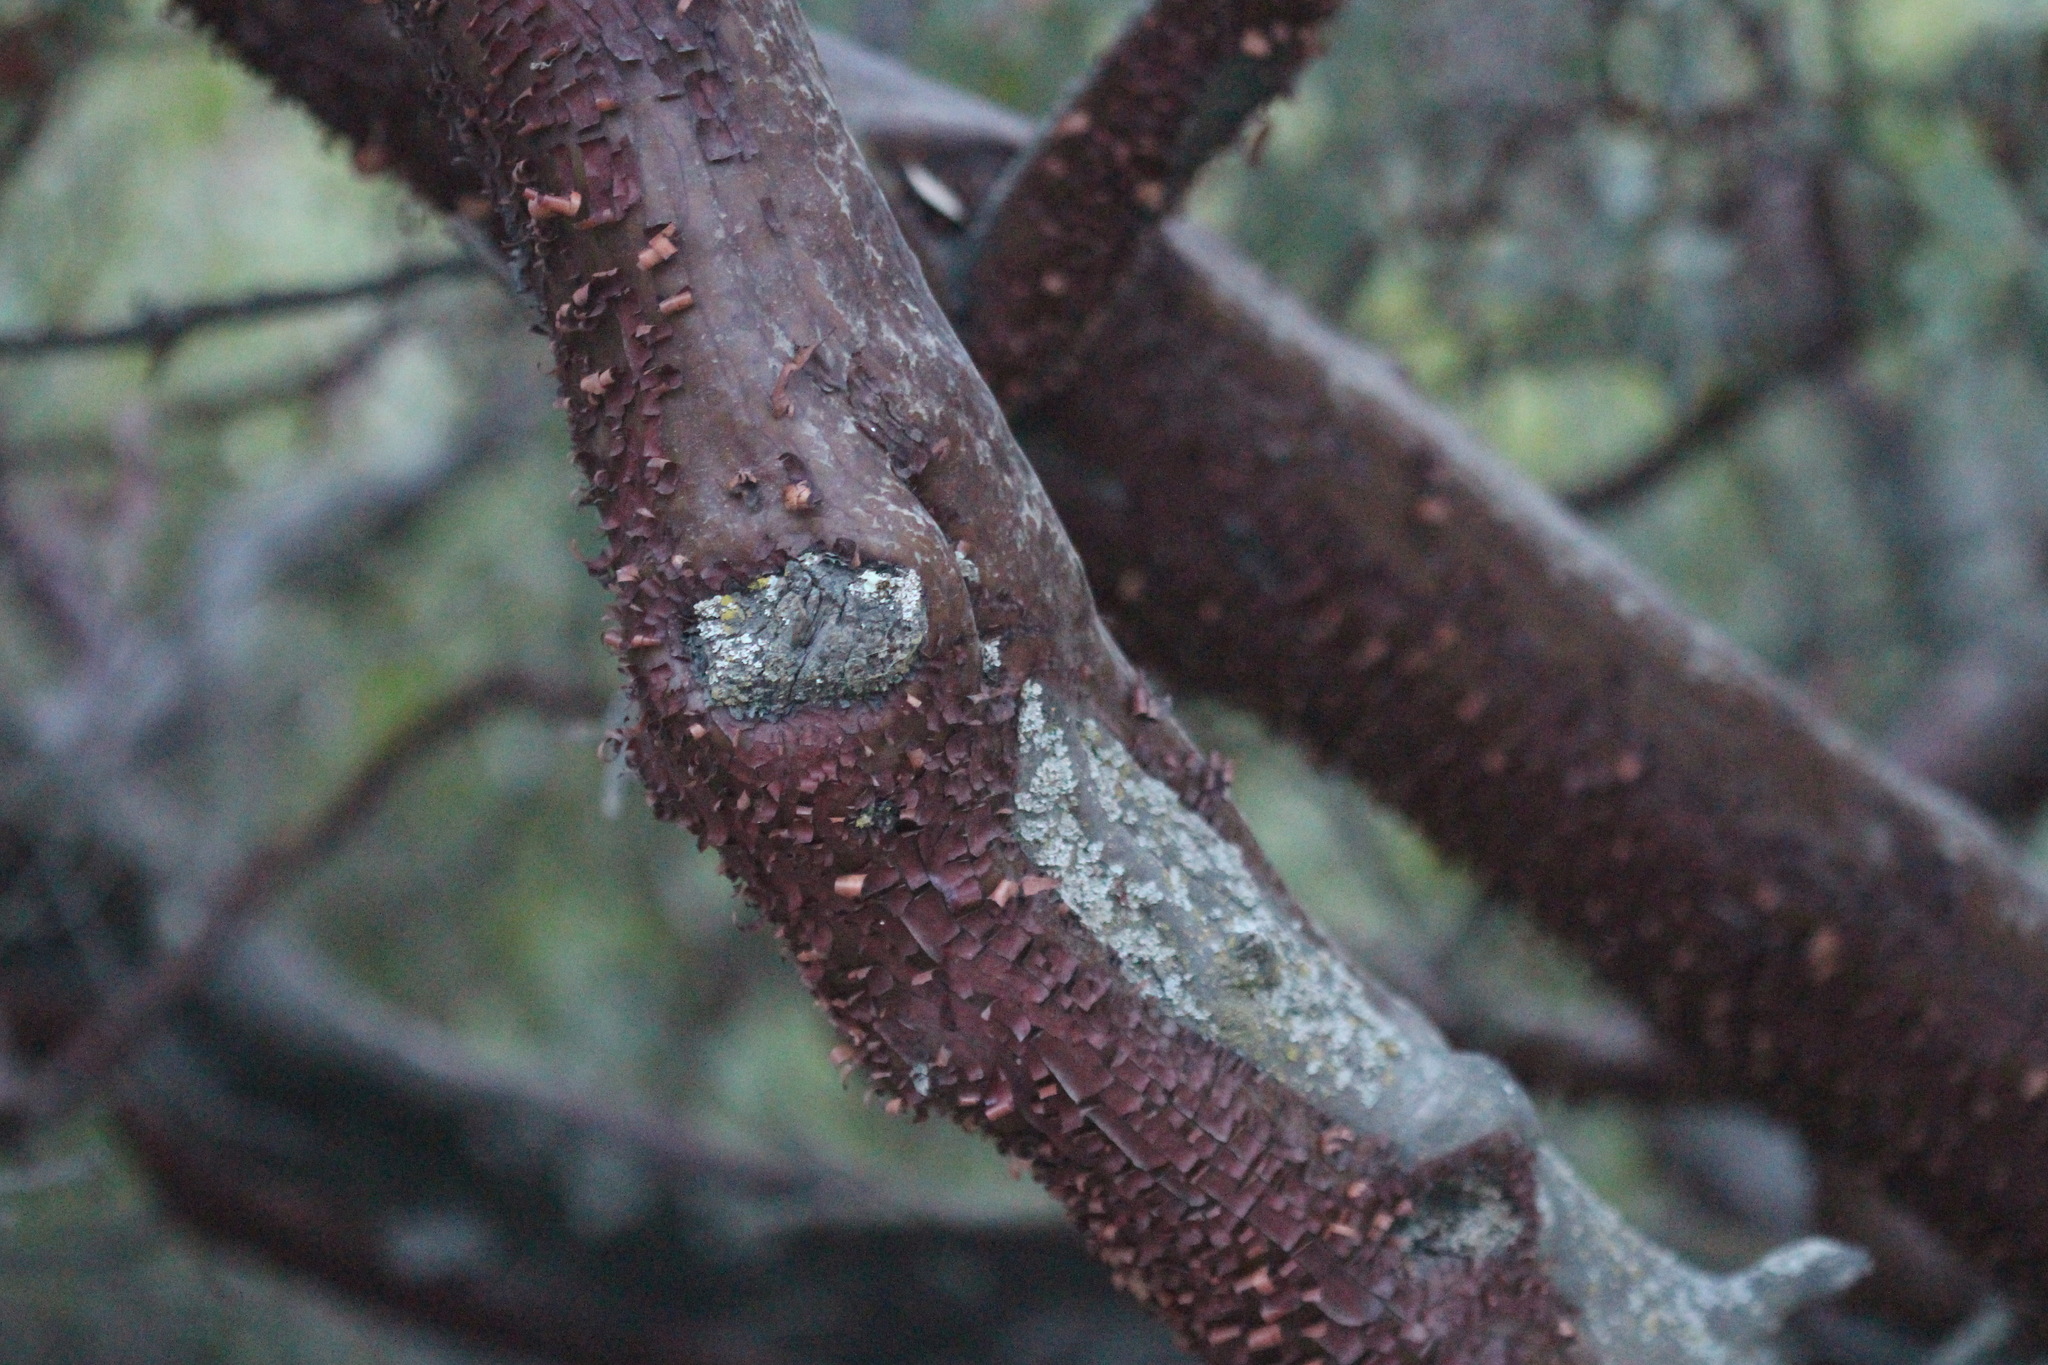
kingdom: Plantae
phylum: Tracheophyta
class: Magnoliopsida
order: Ericales
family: Ericaceae
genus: Arctostaphylos
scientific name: Arctostaphylos glauca
